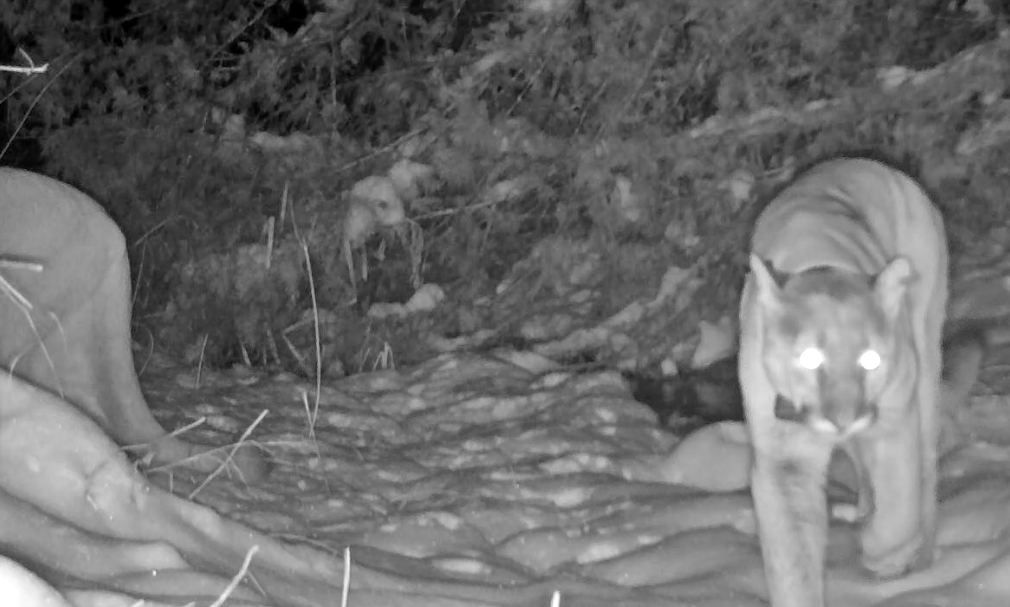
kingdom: Animalia
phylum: Chordata
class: Mammalia
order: Carnivora
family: Felidae
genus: Puma
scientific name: Puma concolor
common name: Puma
